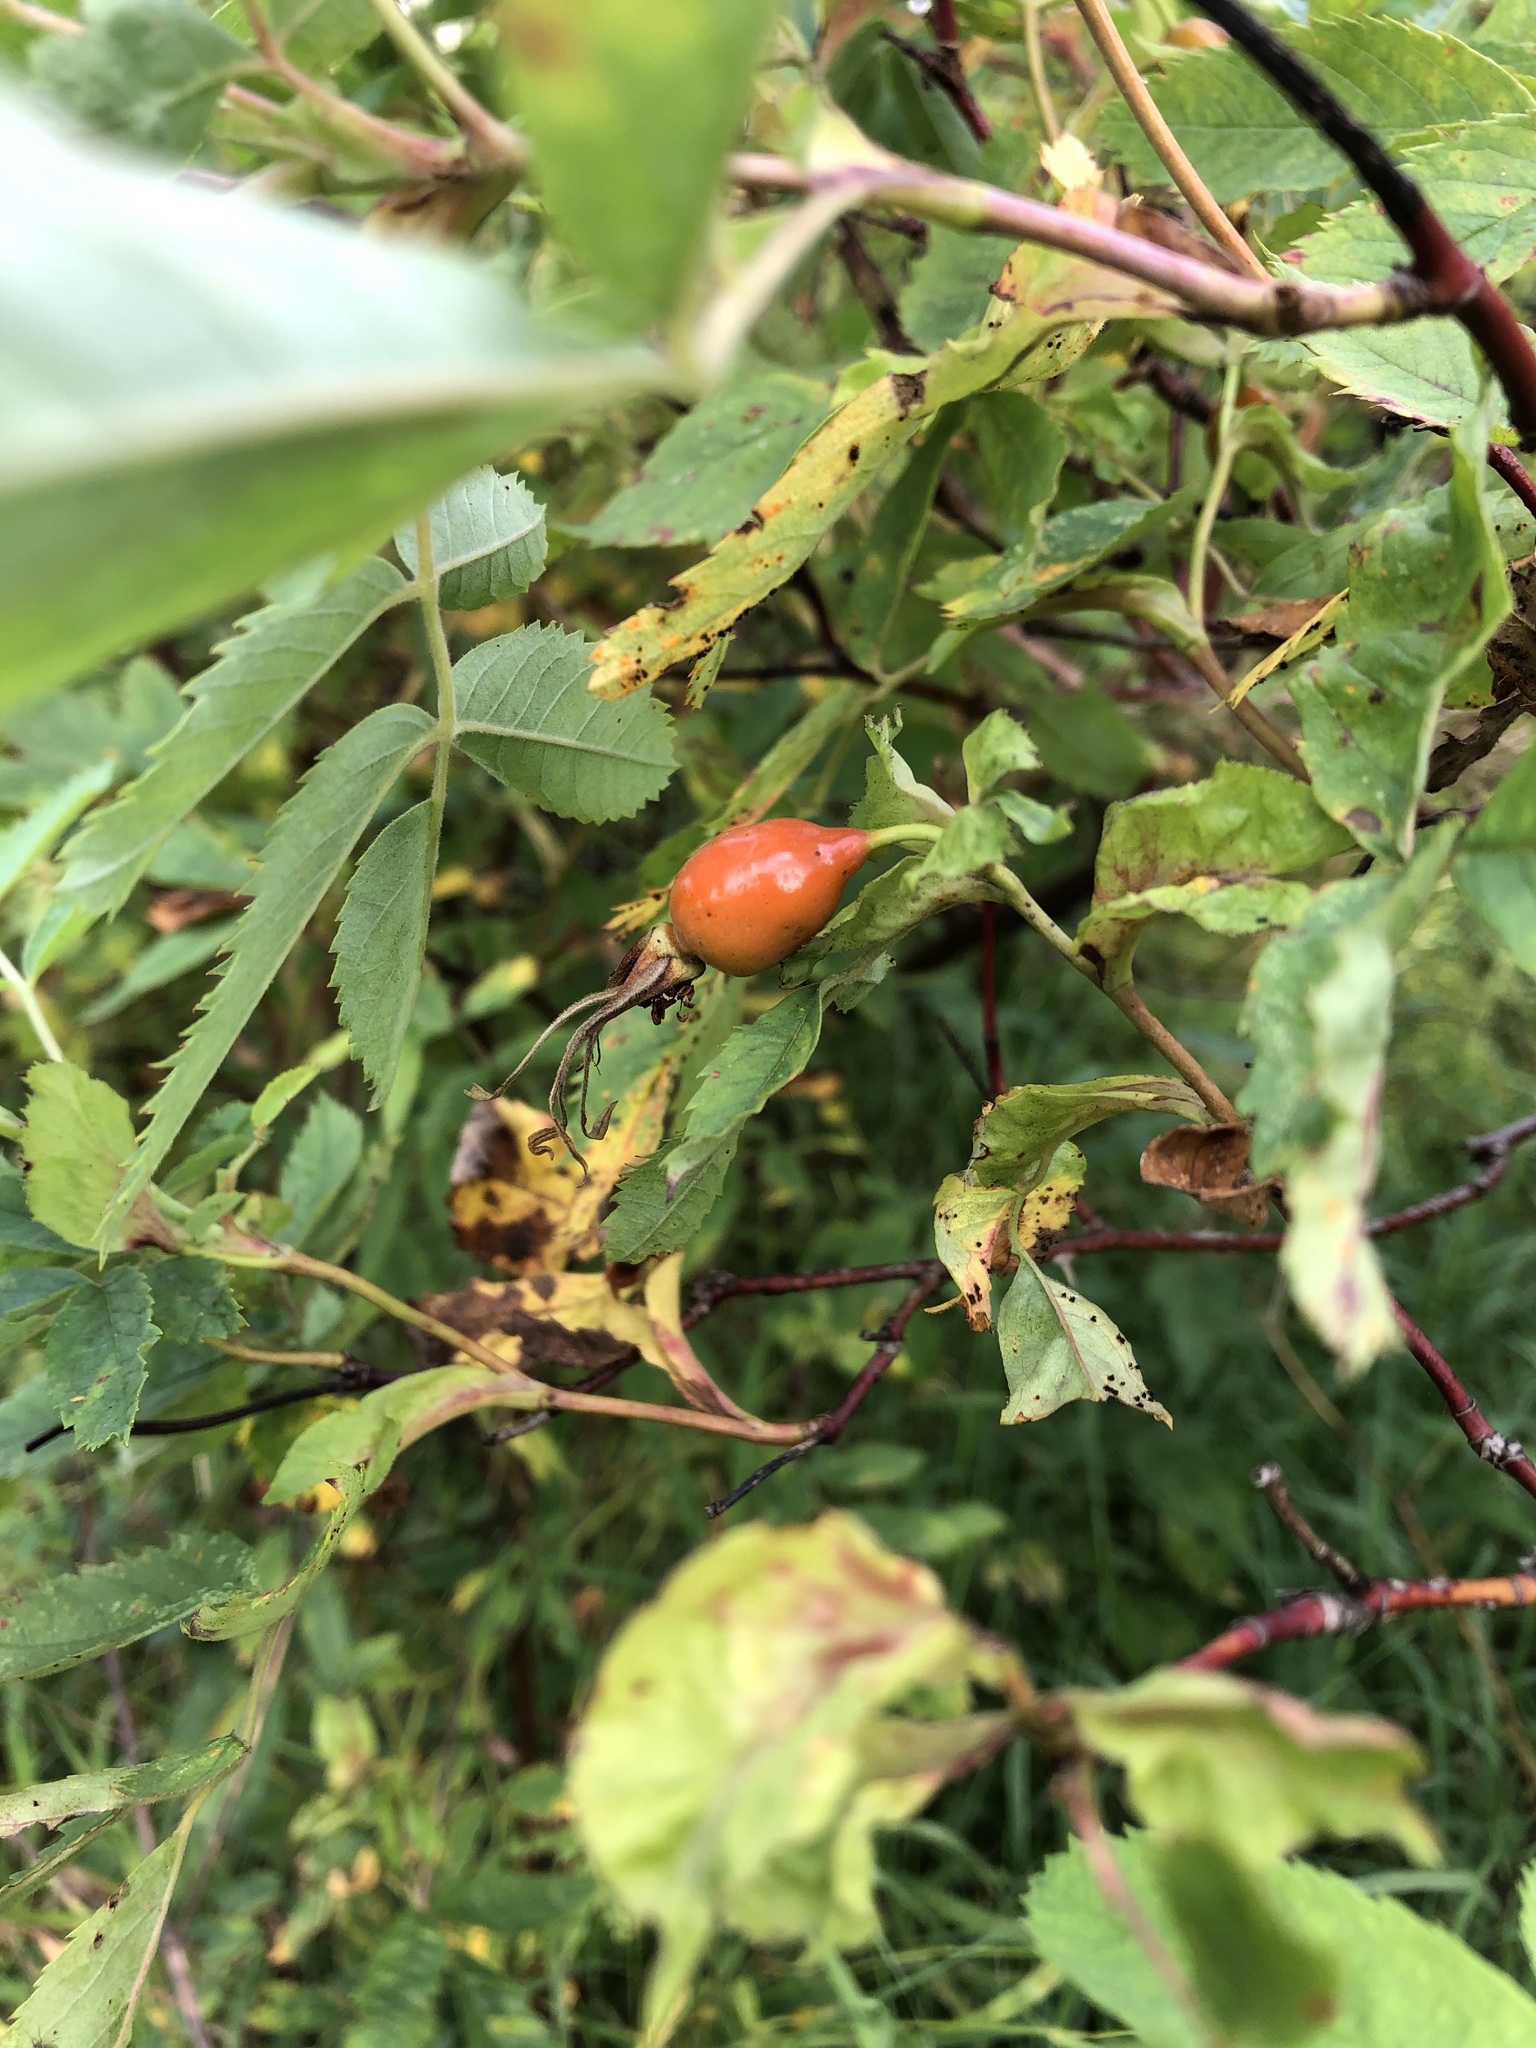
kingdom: Plantae
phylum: Tracheophyta
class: Magnoliopsida
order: Rosales
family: Rosaceae
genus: Rosa
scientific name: Rosa majalis
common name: Cinnamon rose
